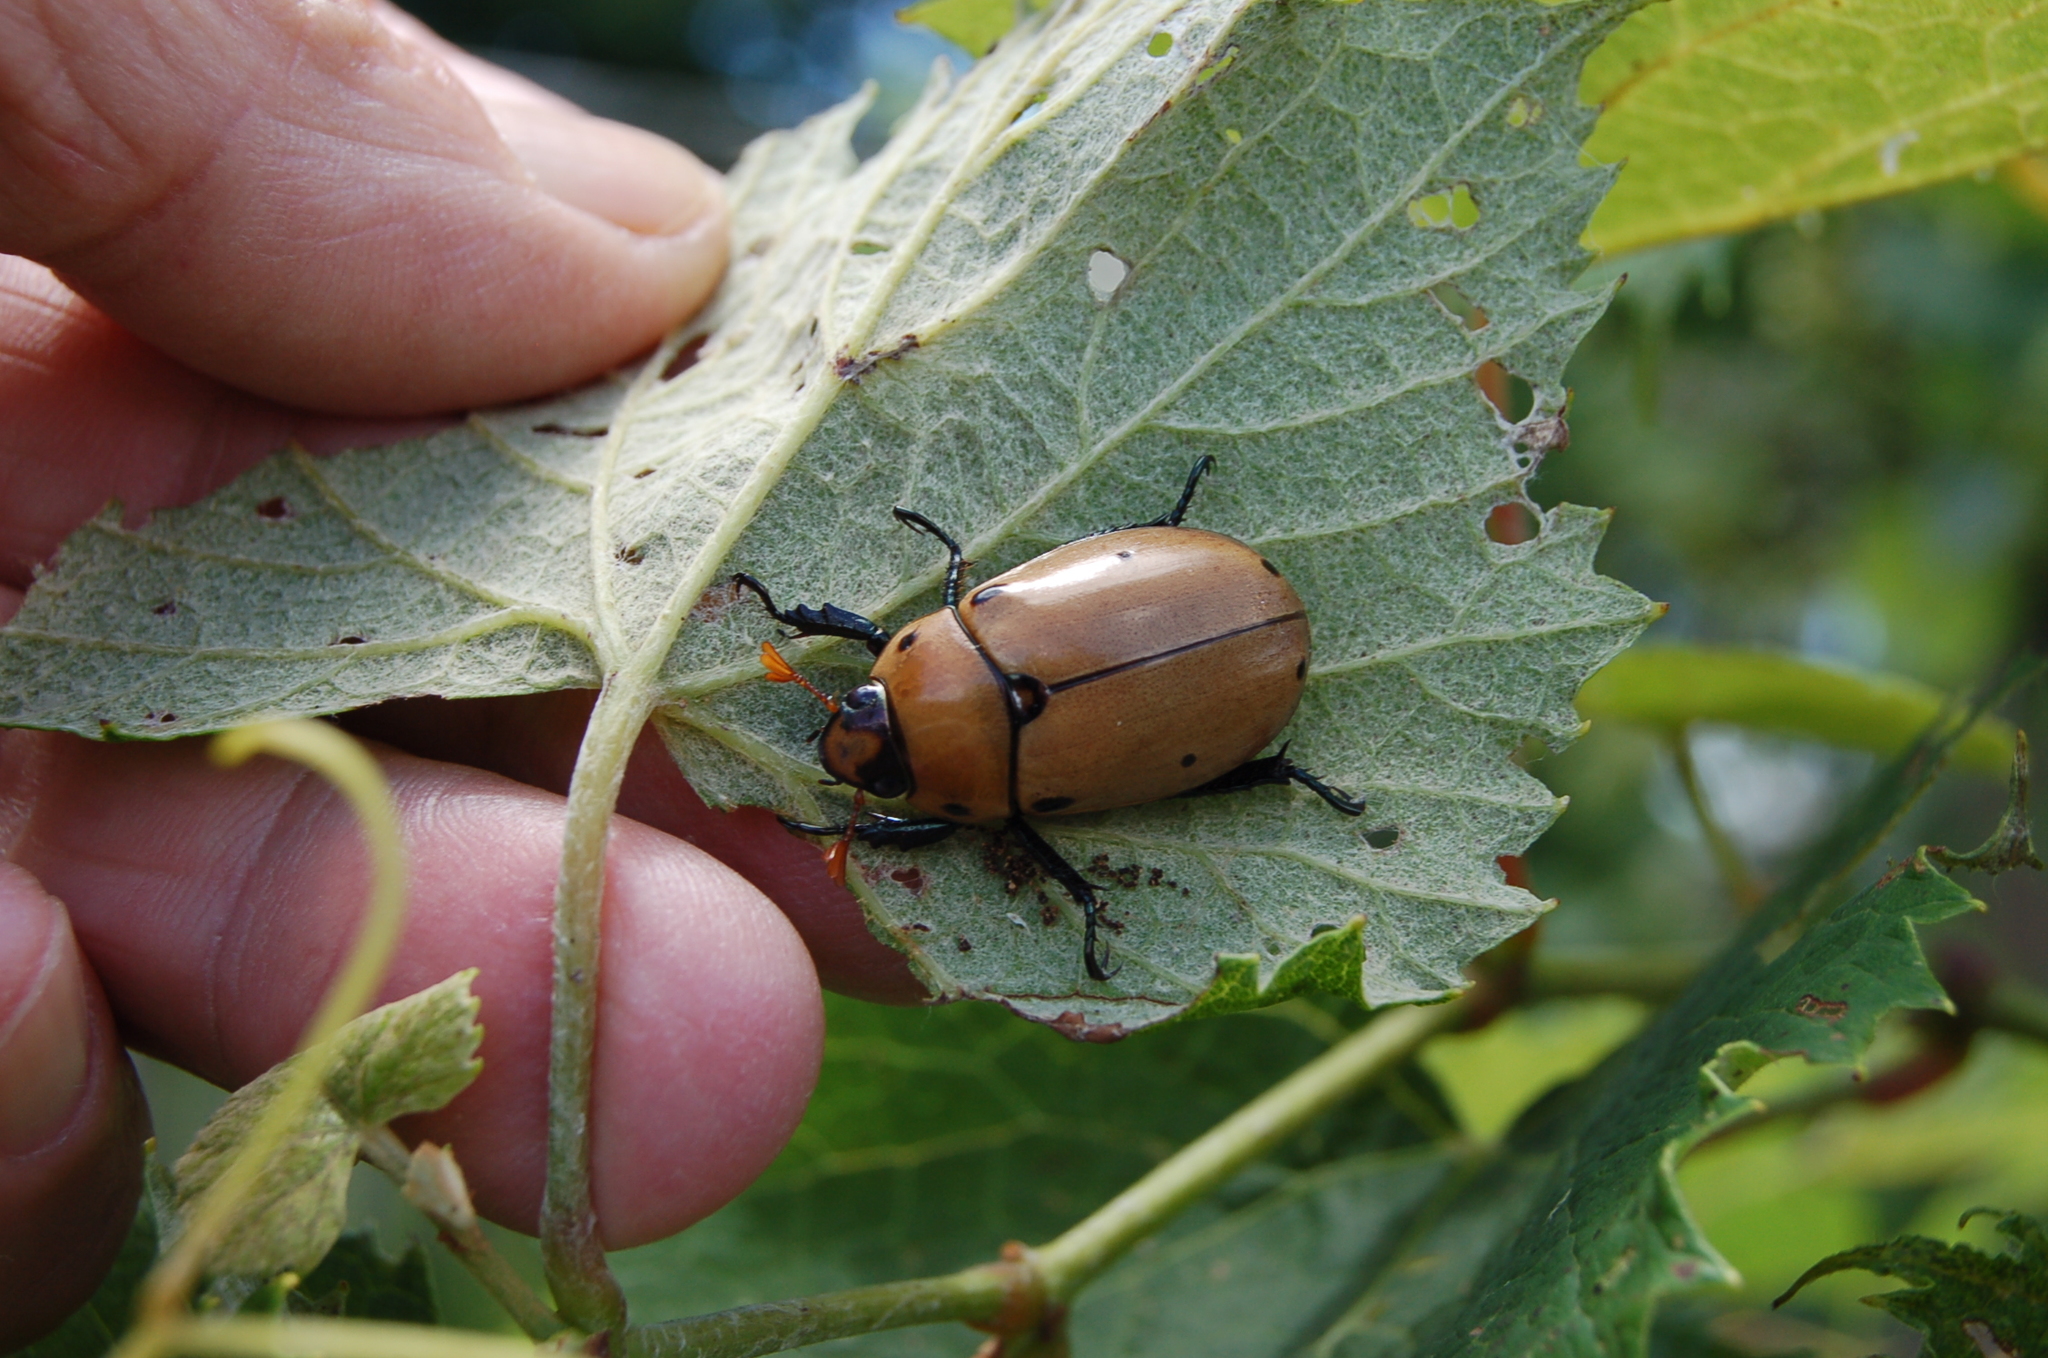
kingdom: Animalia
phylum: Arthropoda
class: Insecta
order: Coleoptera
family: Scarabaeidae
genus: Pelidnota
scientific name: Pelidnota punctata
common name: Grapevine beetle
